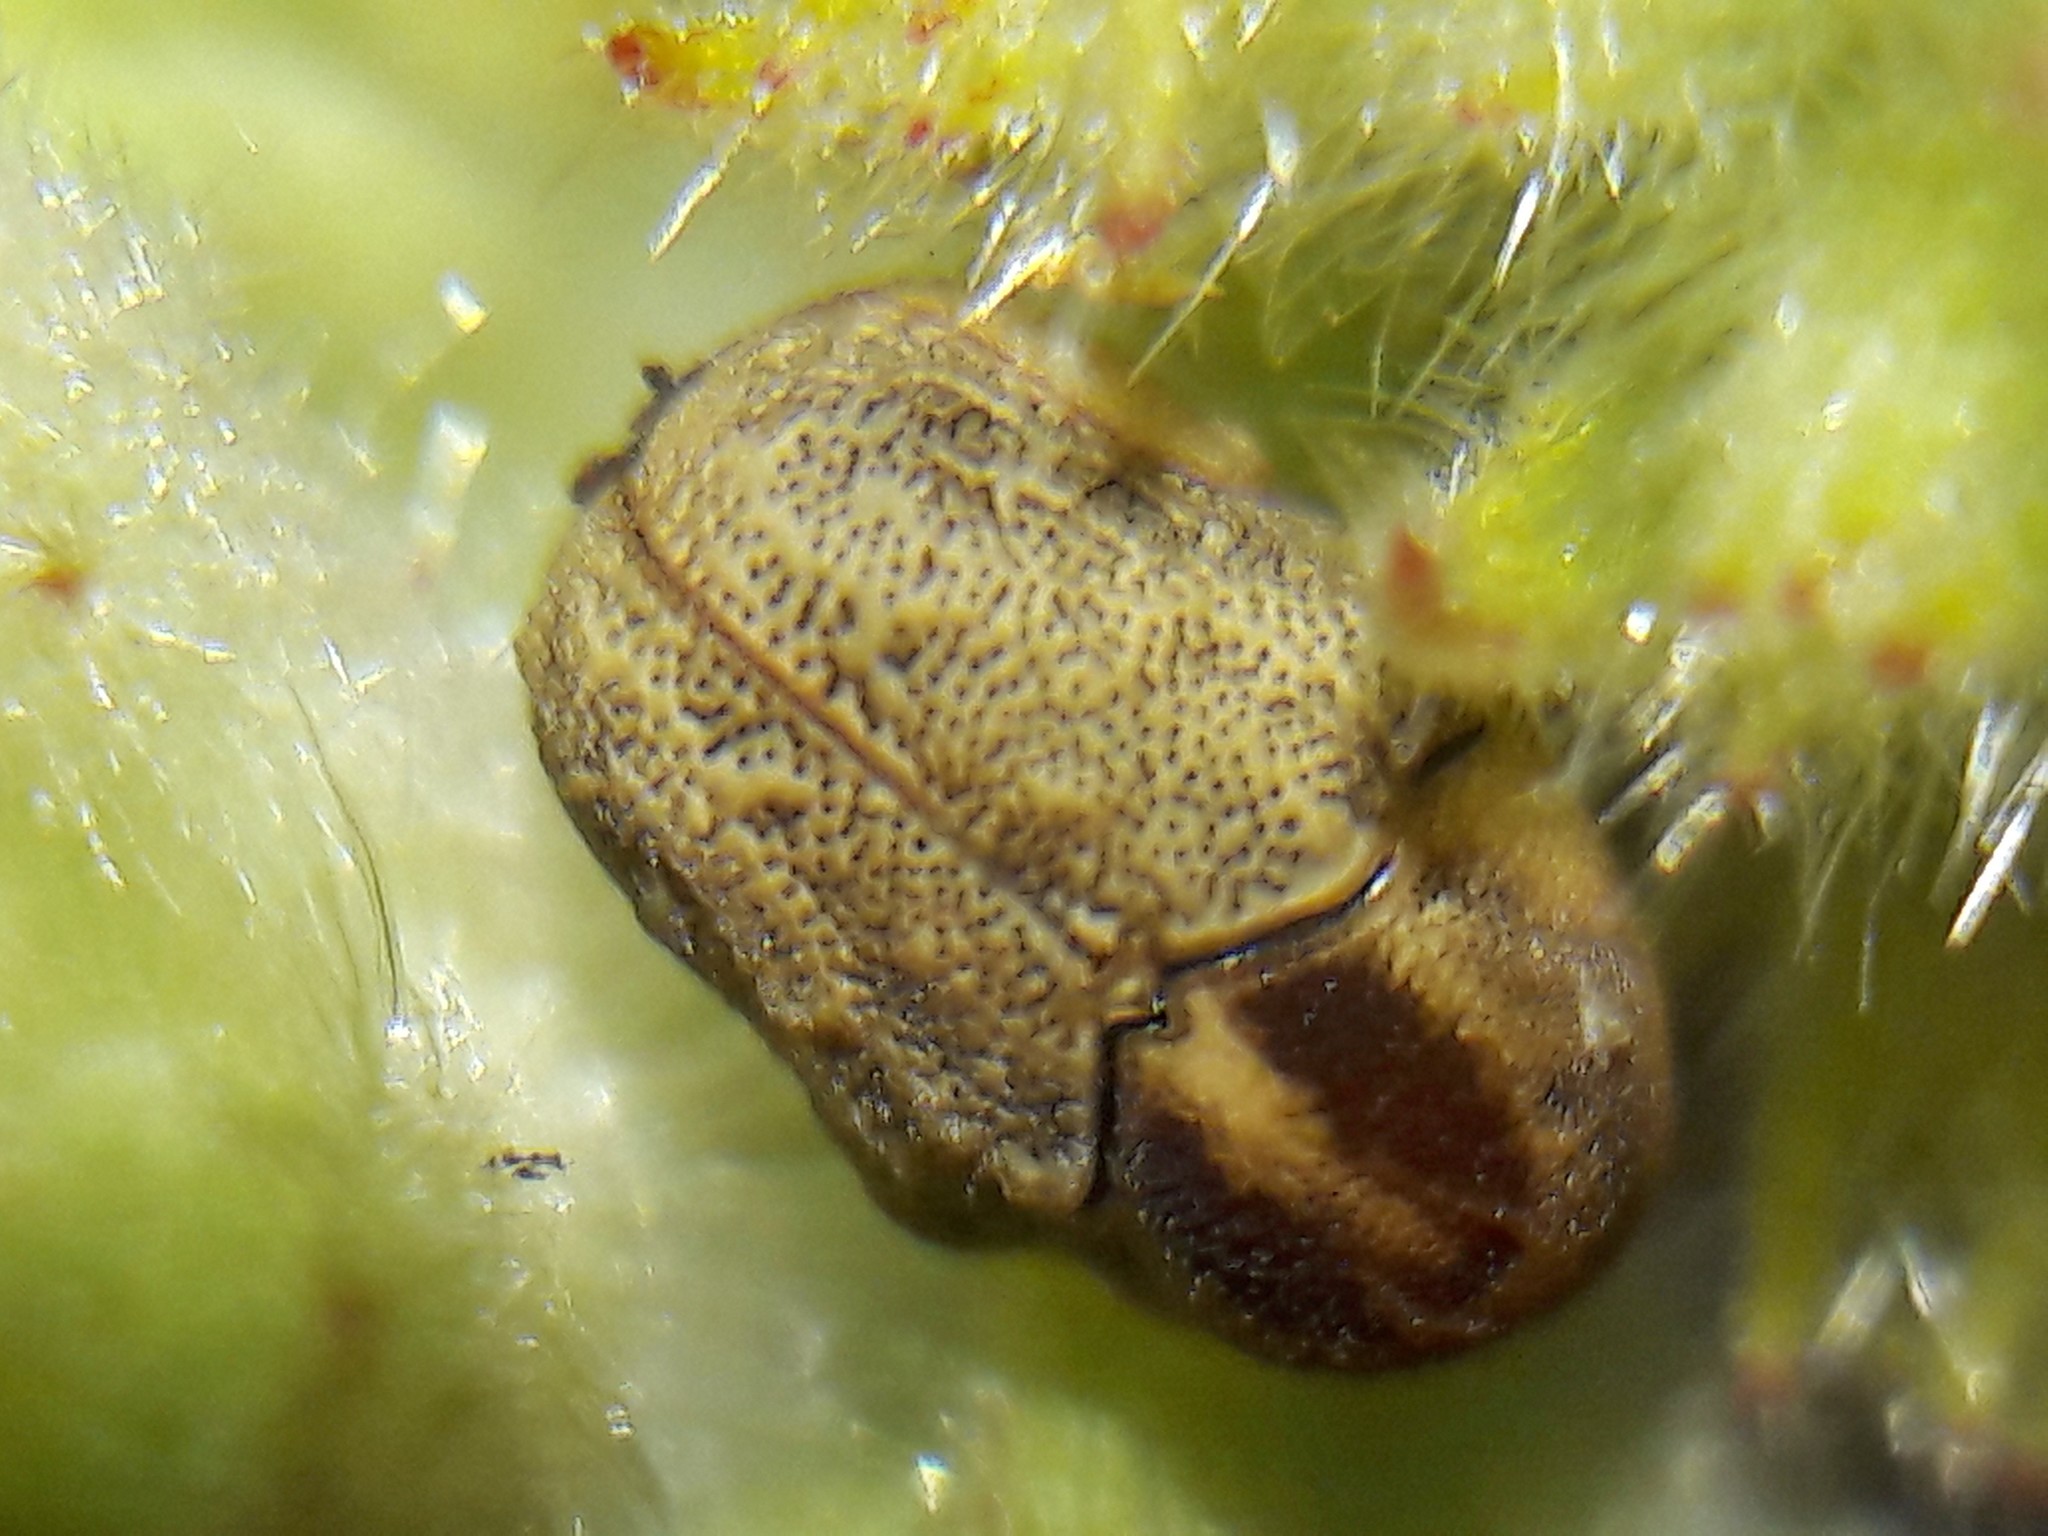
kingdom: Animalia
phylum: Arthropoda
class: Insecta
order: Coleoptera
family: Chrysomelidae
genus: Chlamisus
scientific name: Chlamisus
